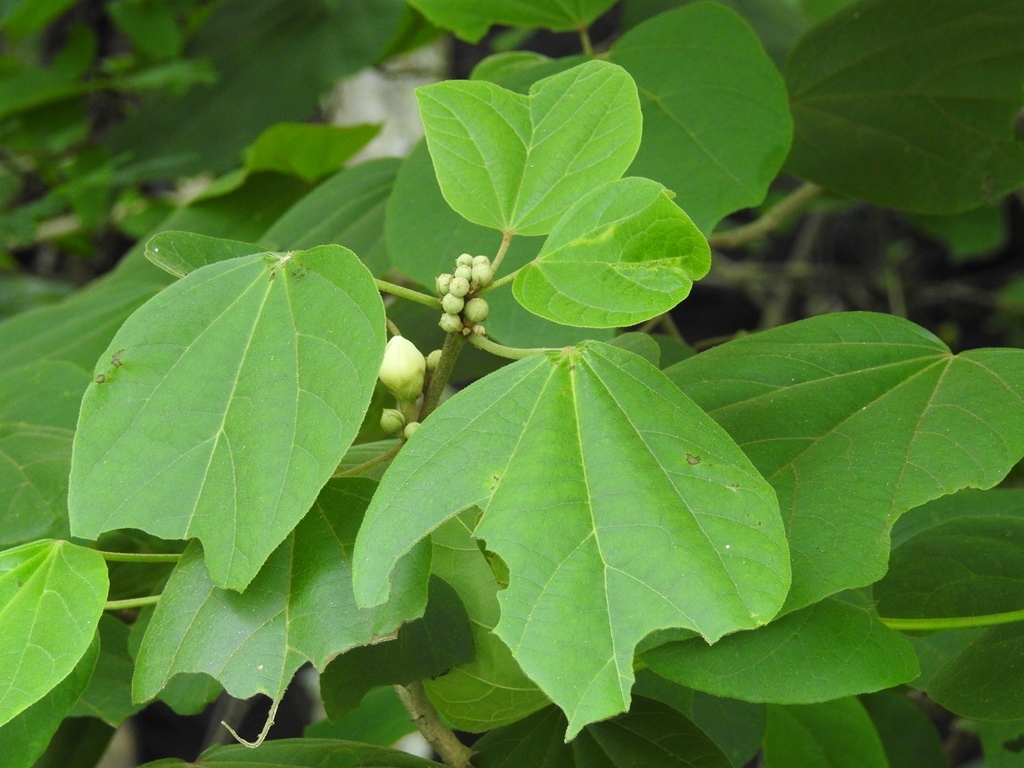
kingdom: Plantae
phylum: Tracheophyta
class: Magnoliopsida
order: Malvales
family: Malvaceae
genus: Hampea
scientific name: Hampea mexicana
